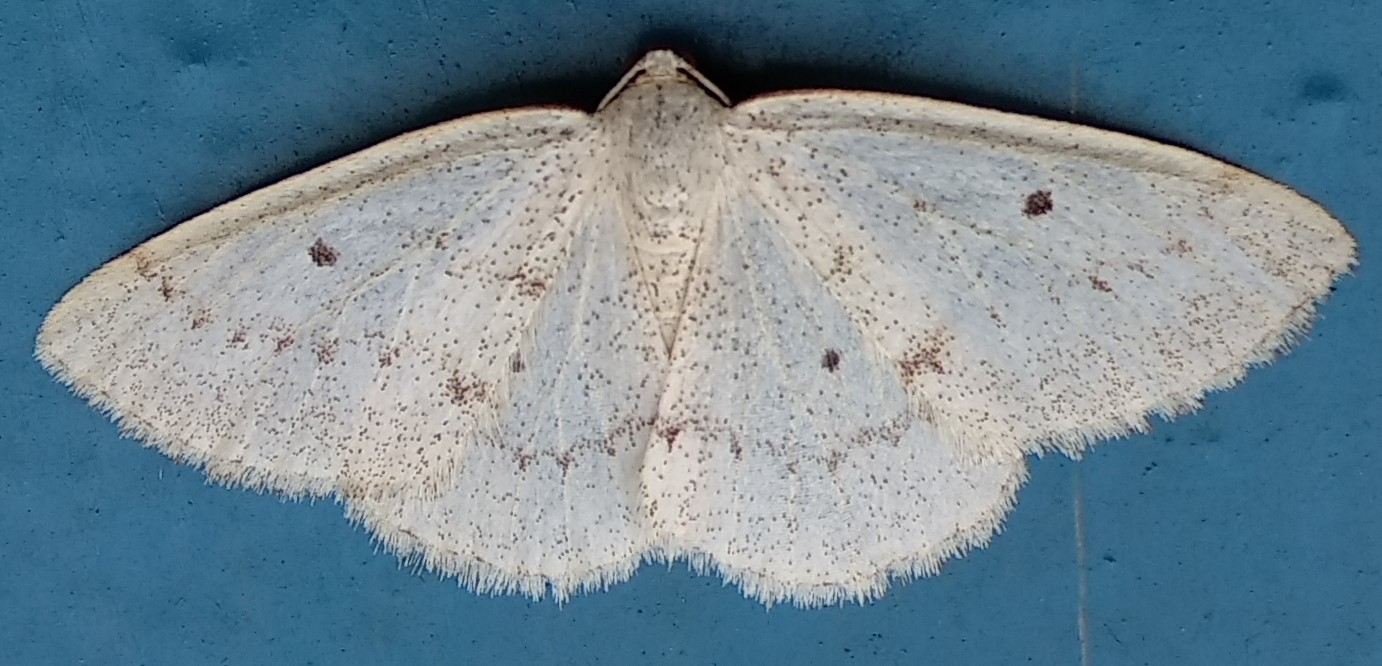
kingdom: Animalia
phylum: Arthropoda
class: Insecta
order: Lepidoptera
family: Geometridae
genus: Lomographa
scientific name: Lomographa glomeraria
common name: Gray spring moth
